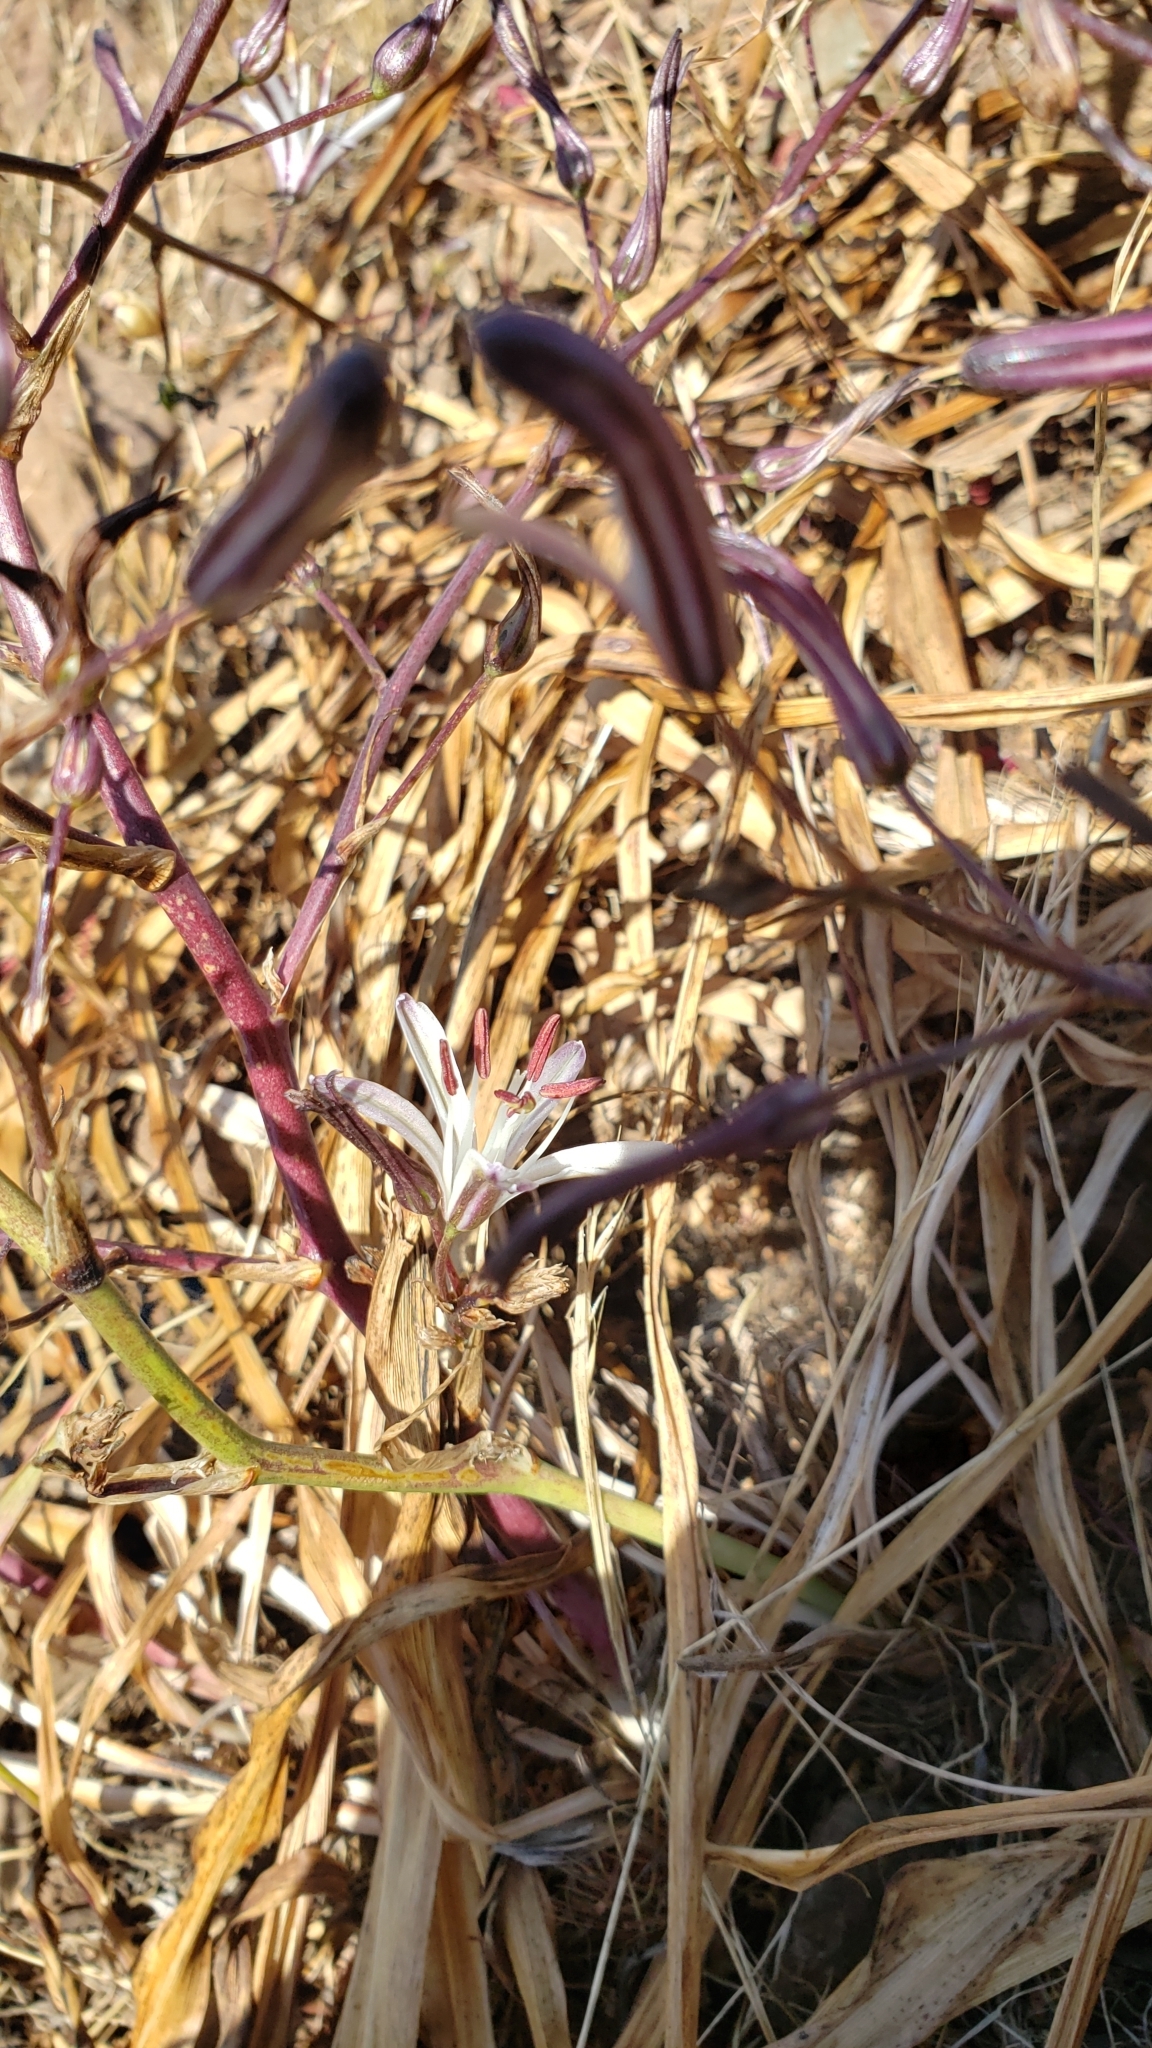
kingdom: Plantae
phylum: Tracheophyta
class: Liliopsida
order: Asparagales
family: Asparagaceae
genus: Chlorogalum
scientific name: Chlorogalum pomeridianum
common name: Amole
